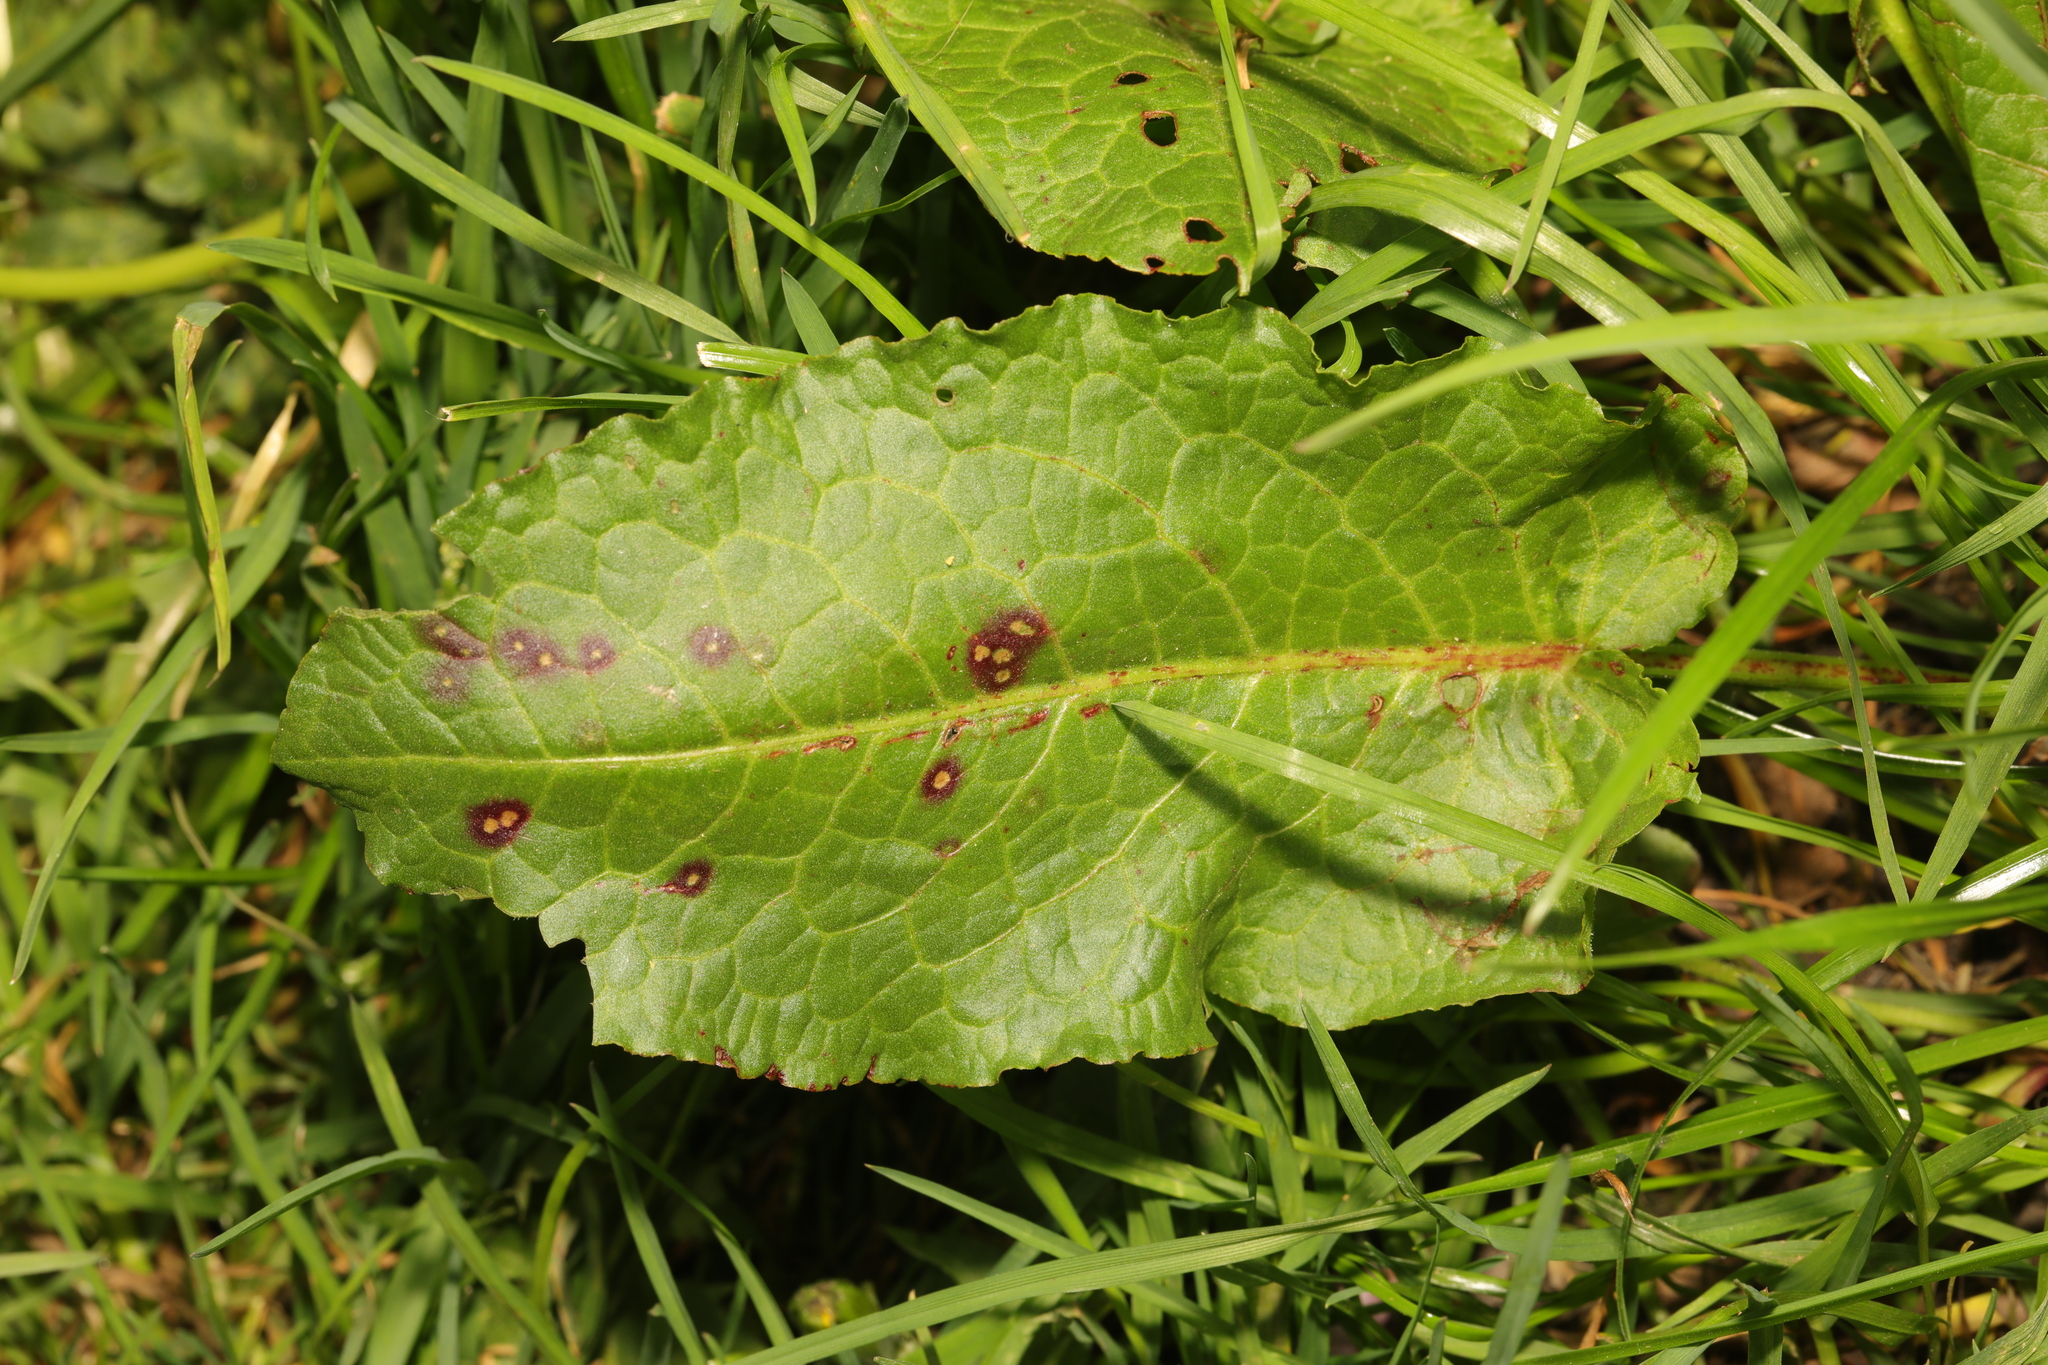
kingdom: Plantae
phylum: Tracheophyta
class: Magnoliopsida
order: Caryophyllales
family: Polygonaceae
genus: Rumex
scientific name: Rumex obtusifolius
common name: Bitter dock
